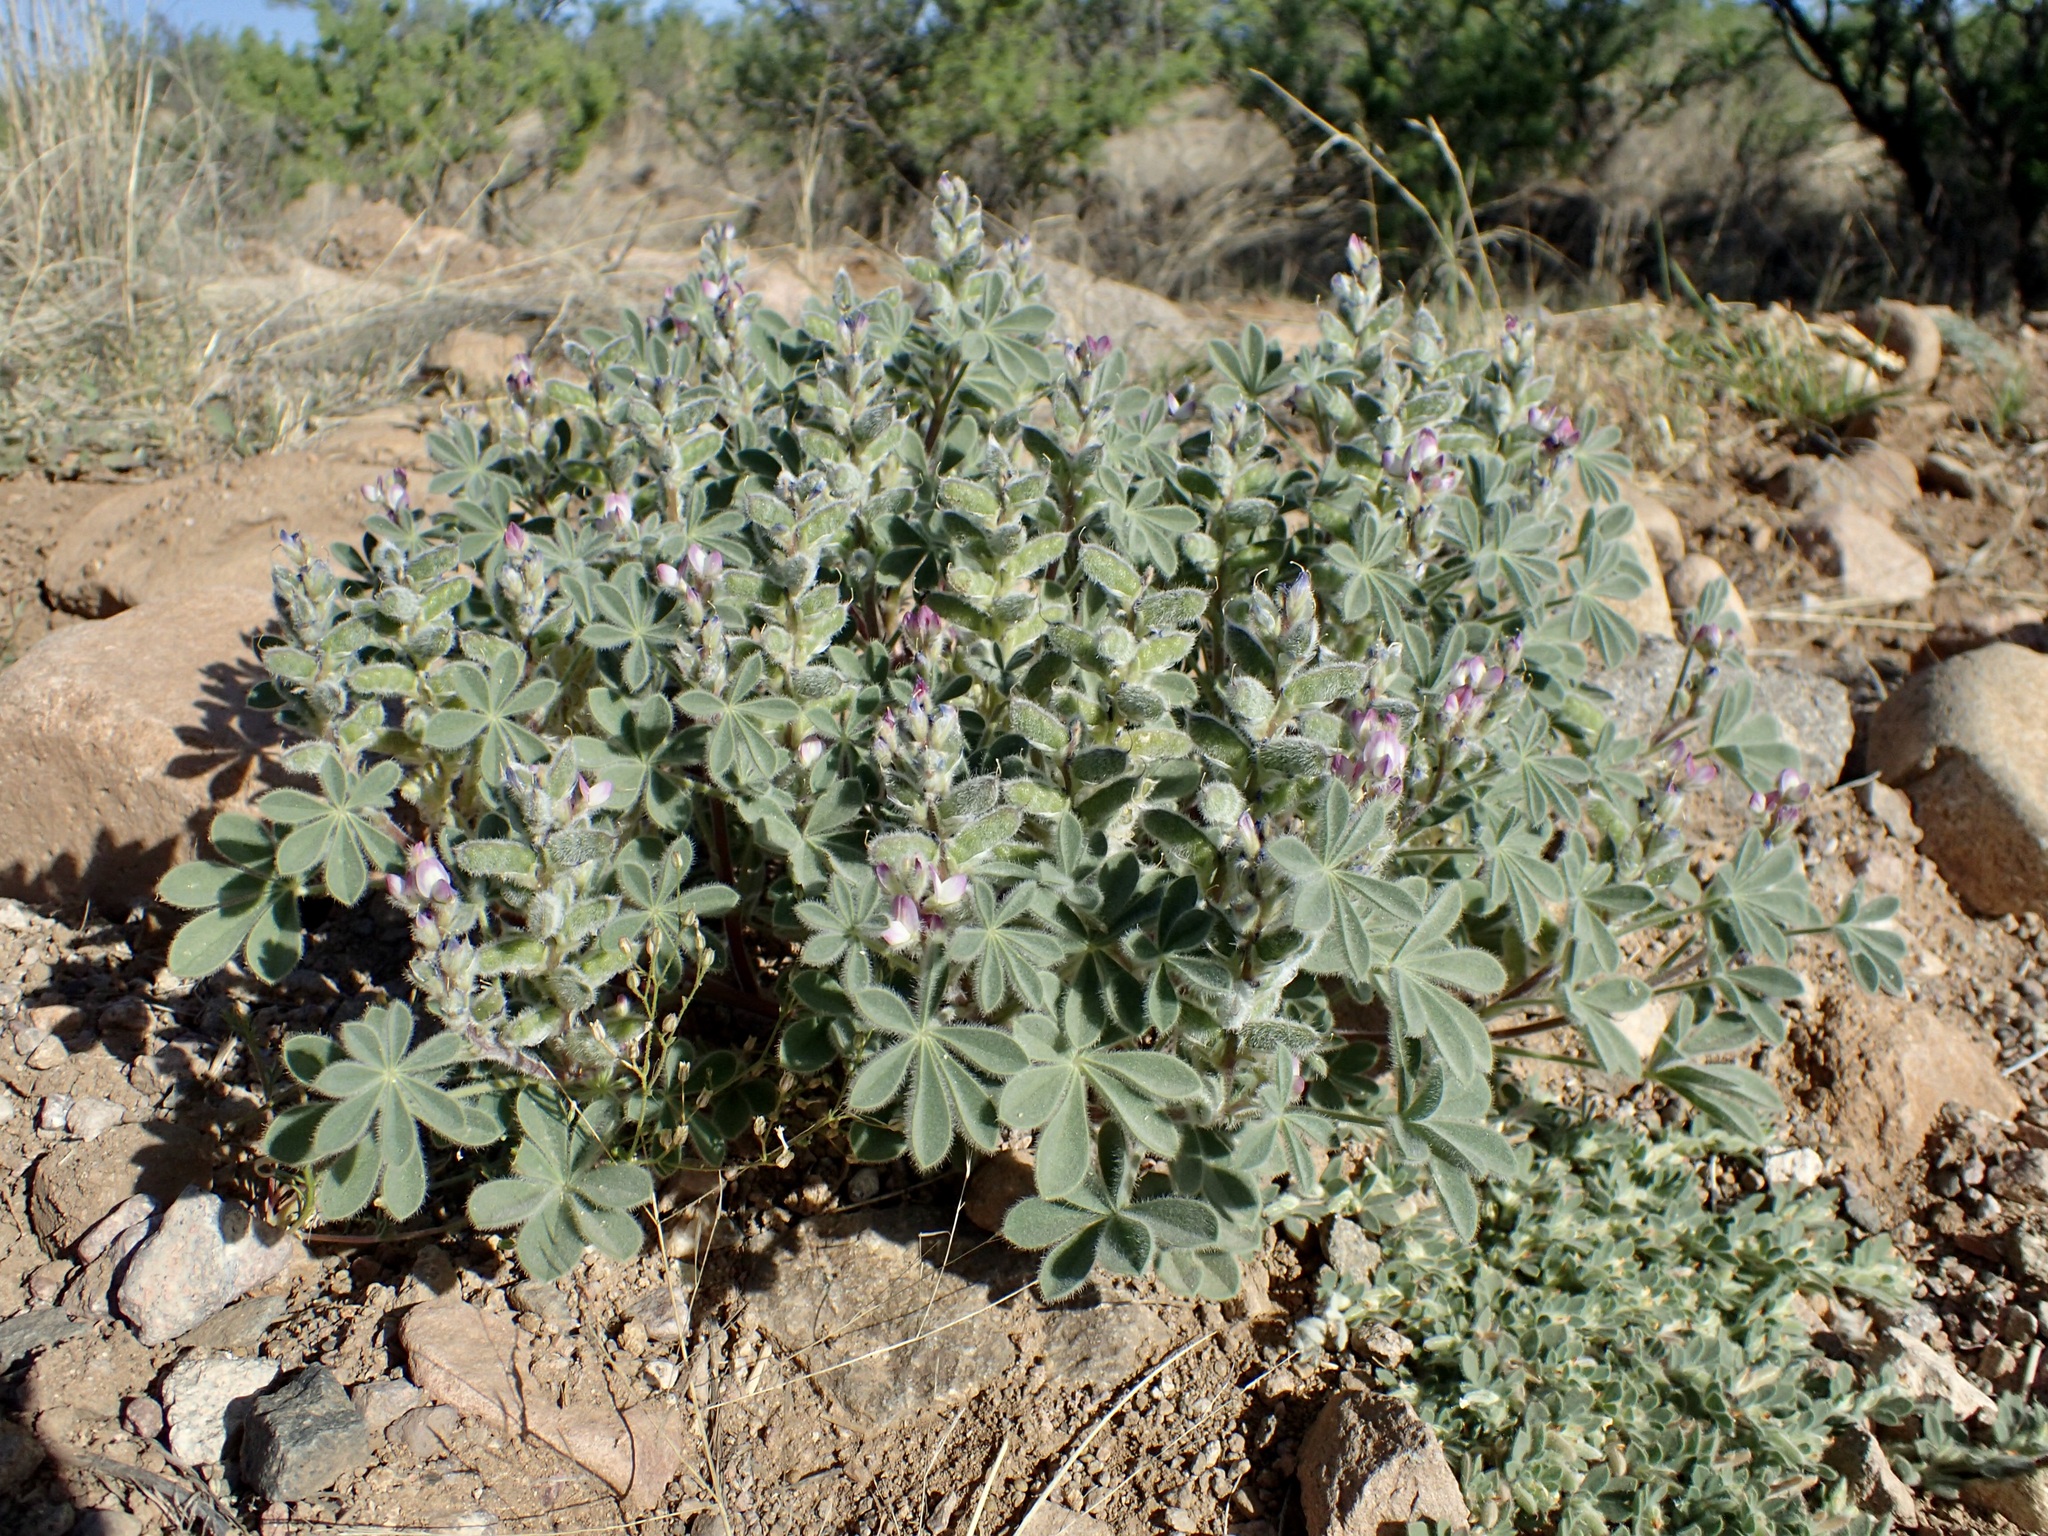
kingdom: Plantae
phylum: Tracheophyta
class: Magnoliopsida
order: Fabales
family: Fabaceae
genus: Lupinus
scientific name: Lupinus concinnus
